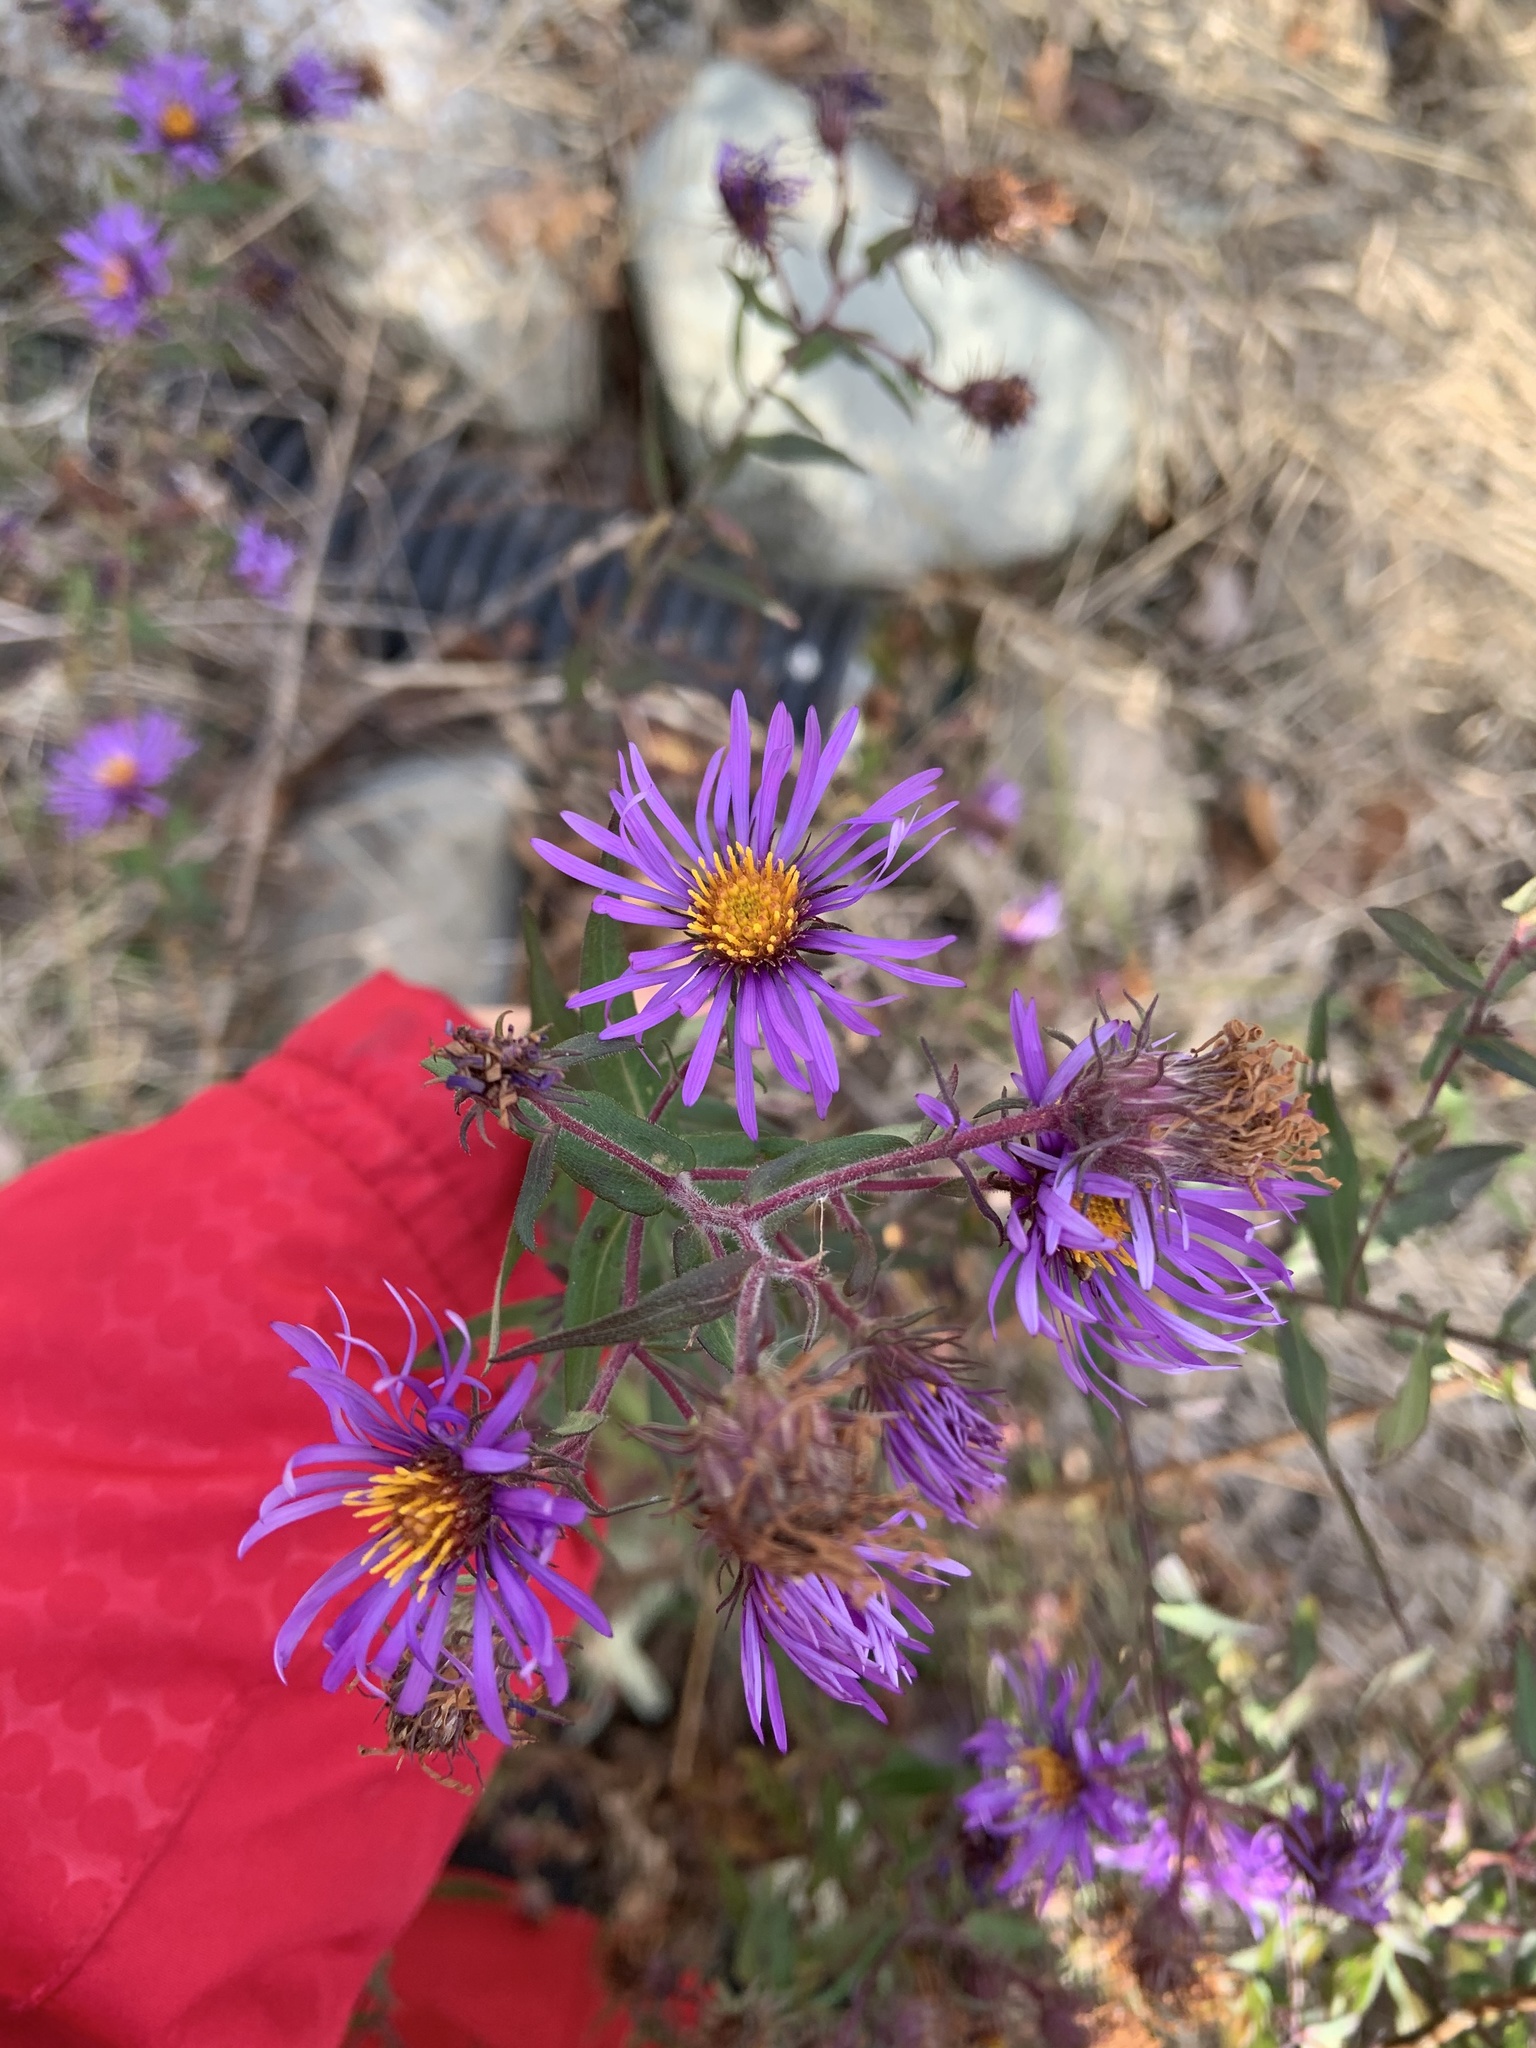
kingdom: Plantae
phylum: Tracheophyta
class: Magnoliopsida
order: Asterales
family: Asteraceae
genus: Symphyotrichum
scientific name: Symphyotrichum novae-angliae
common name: Michaelmas daisy
